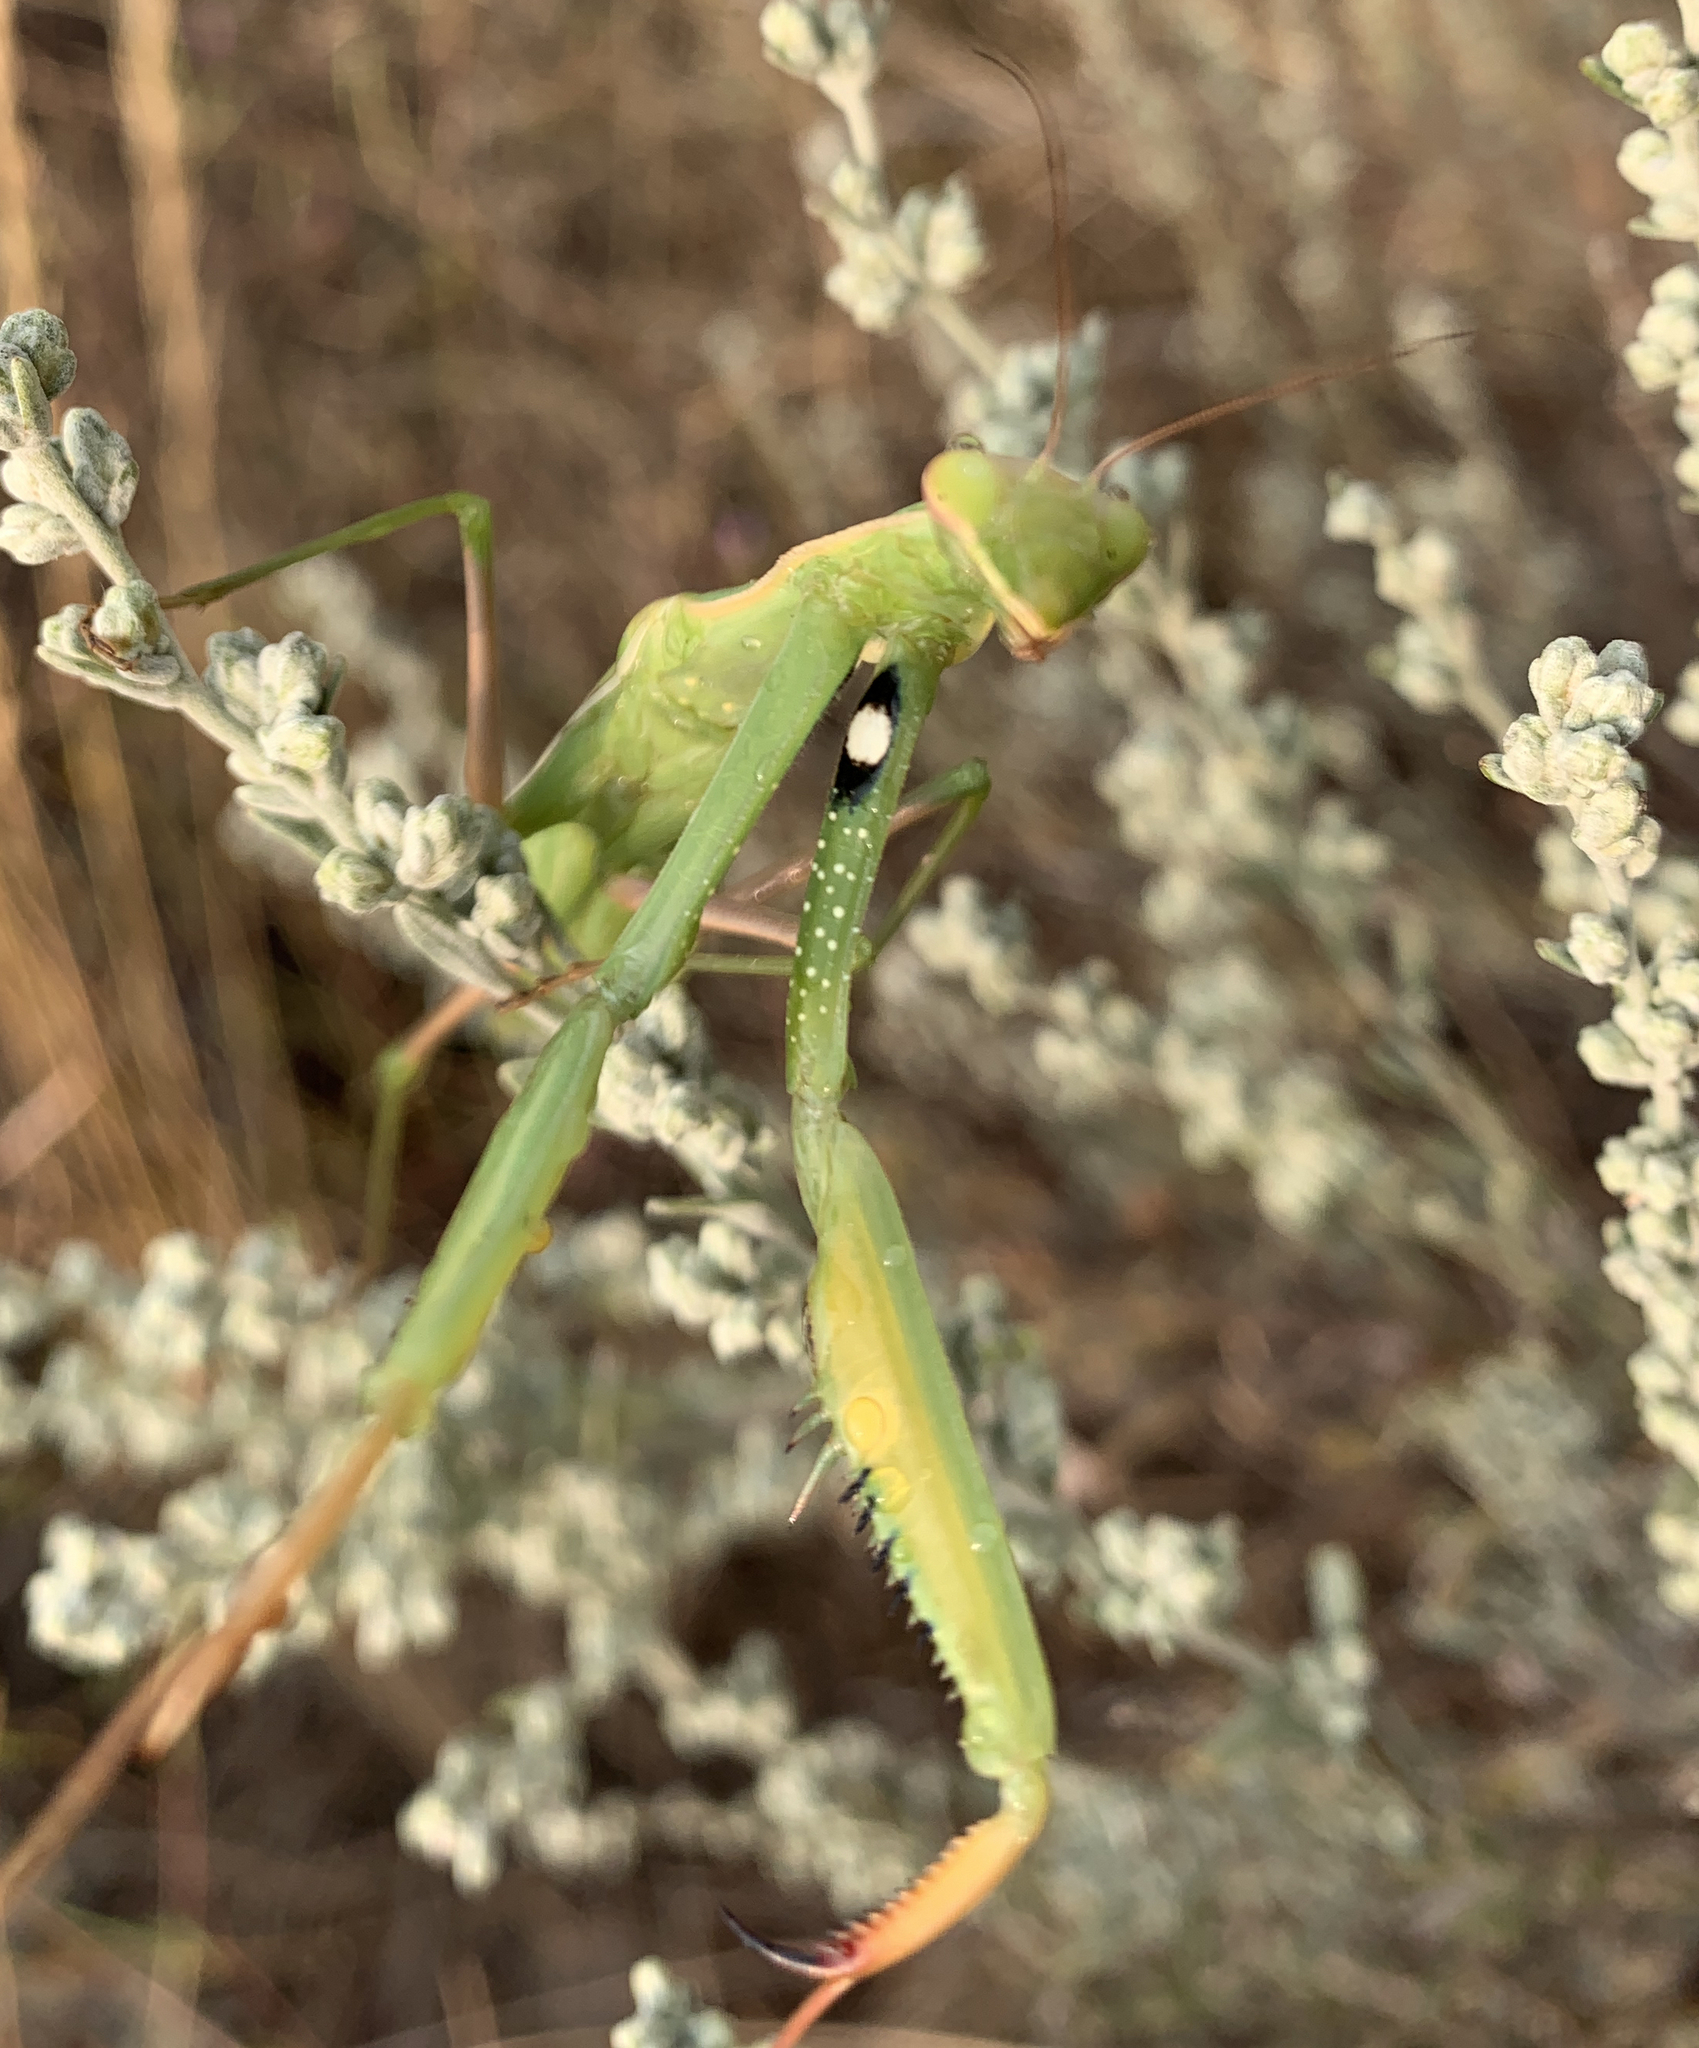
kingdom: Animalia
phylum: Arthropoda
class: Insecta
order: Mantodea
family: Mantidae
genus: Mantis
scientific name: Mantis religiosa
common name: Praying mantis
